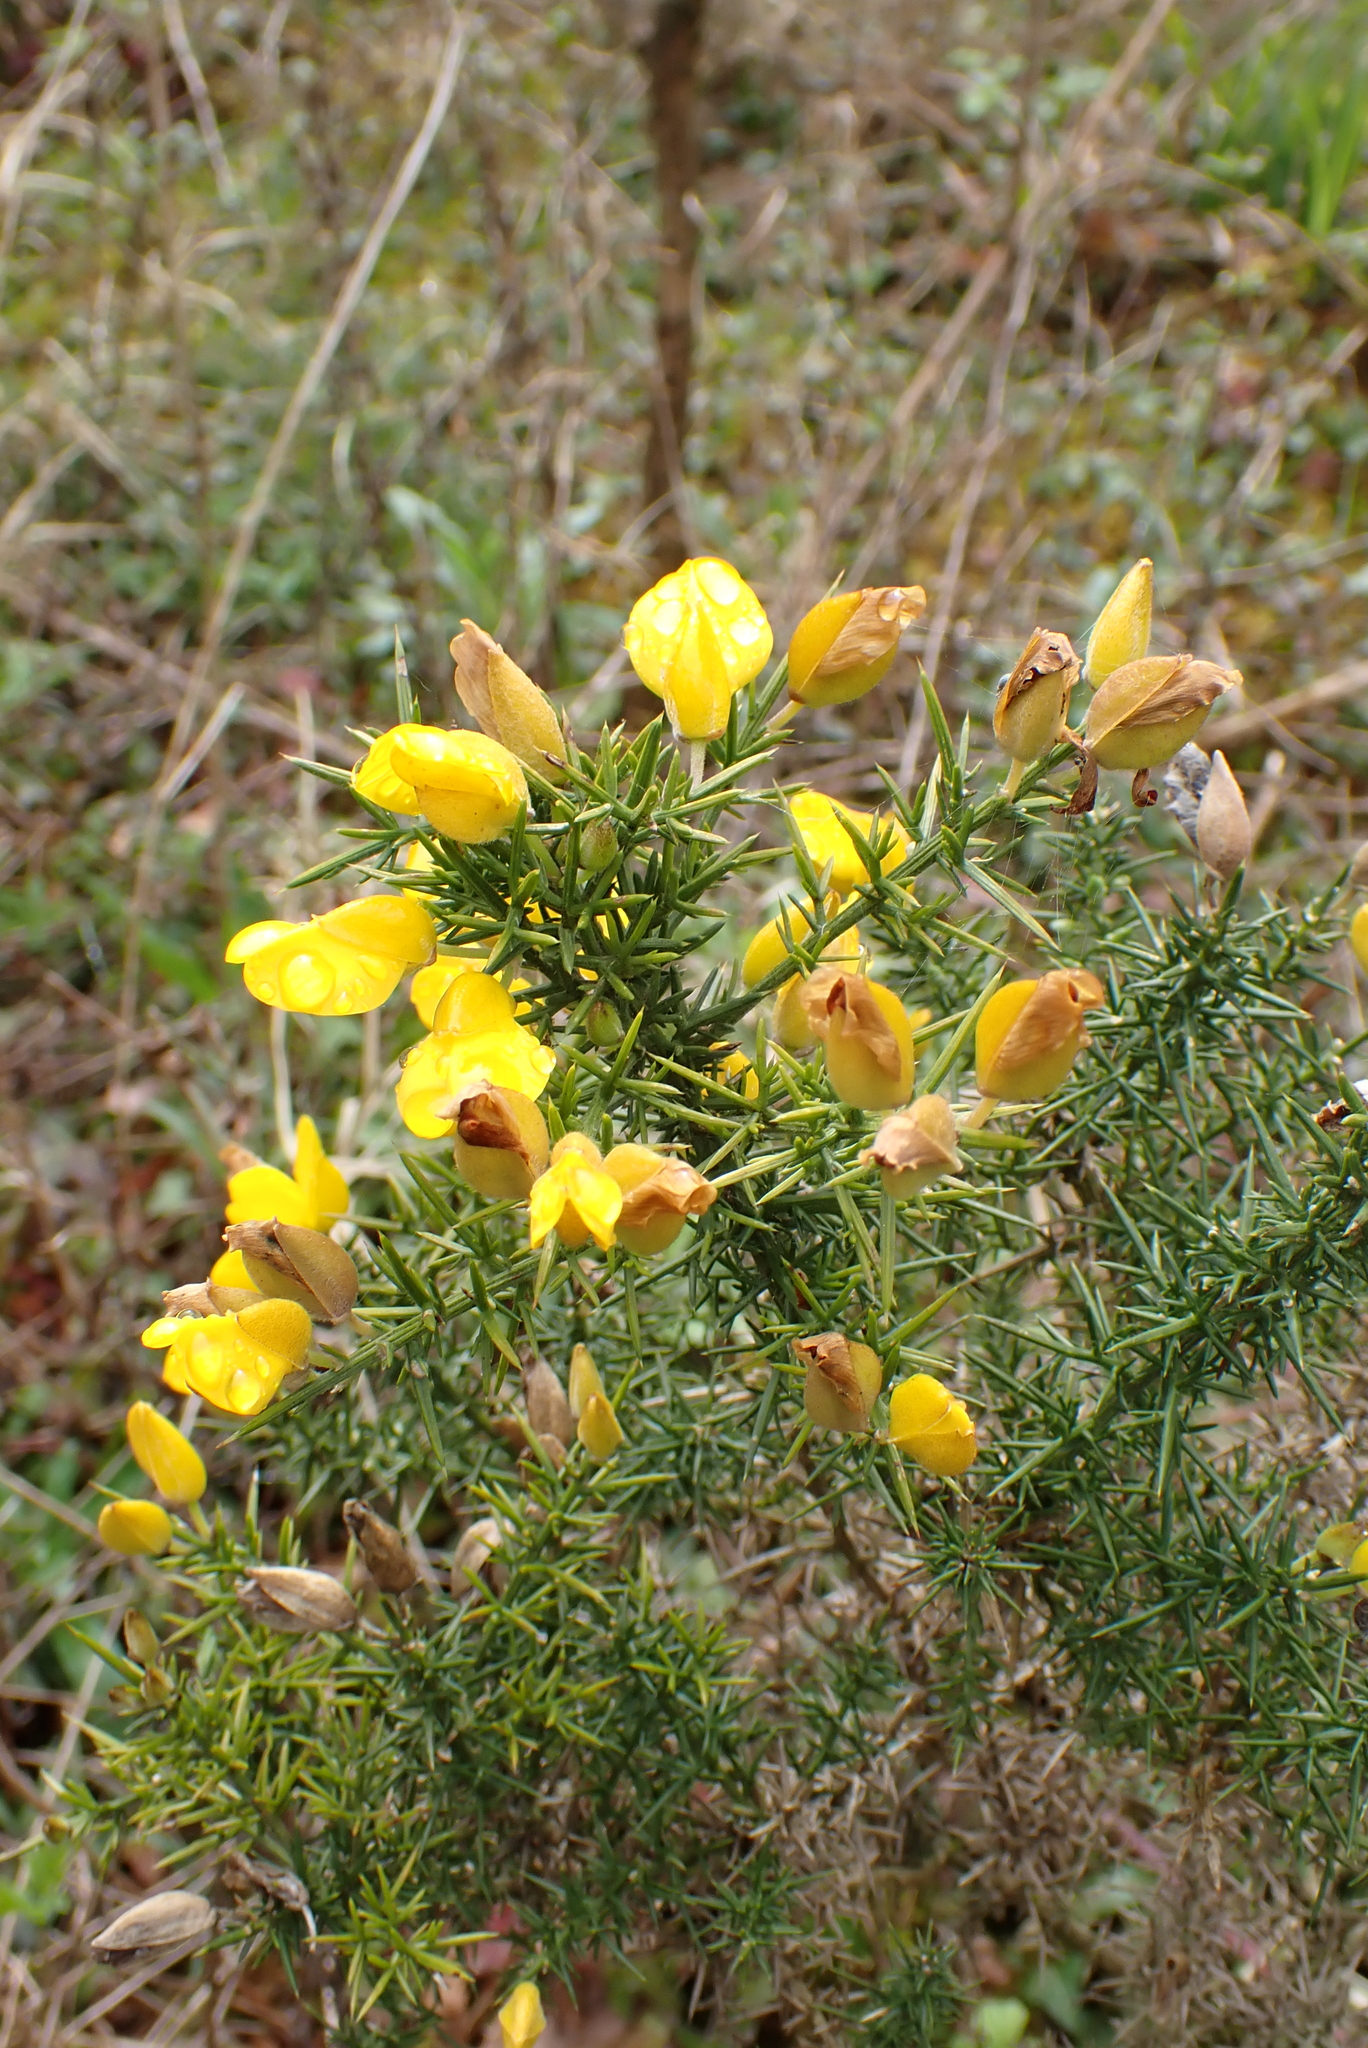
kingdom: Plantae
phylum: Tracheophyta
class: Magnoliopsida
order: Fabales
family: Fabaceae
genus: Ulex
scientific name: Ulex europaeus
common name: Common gorse
